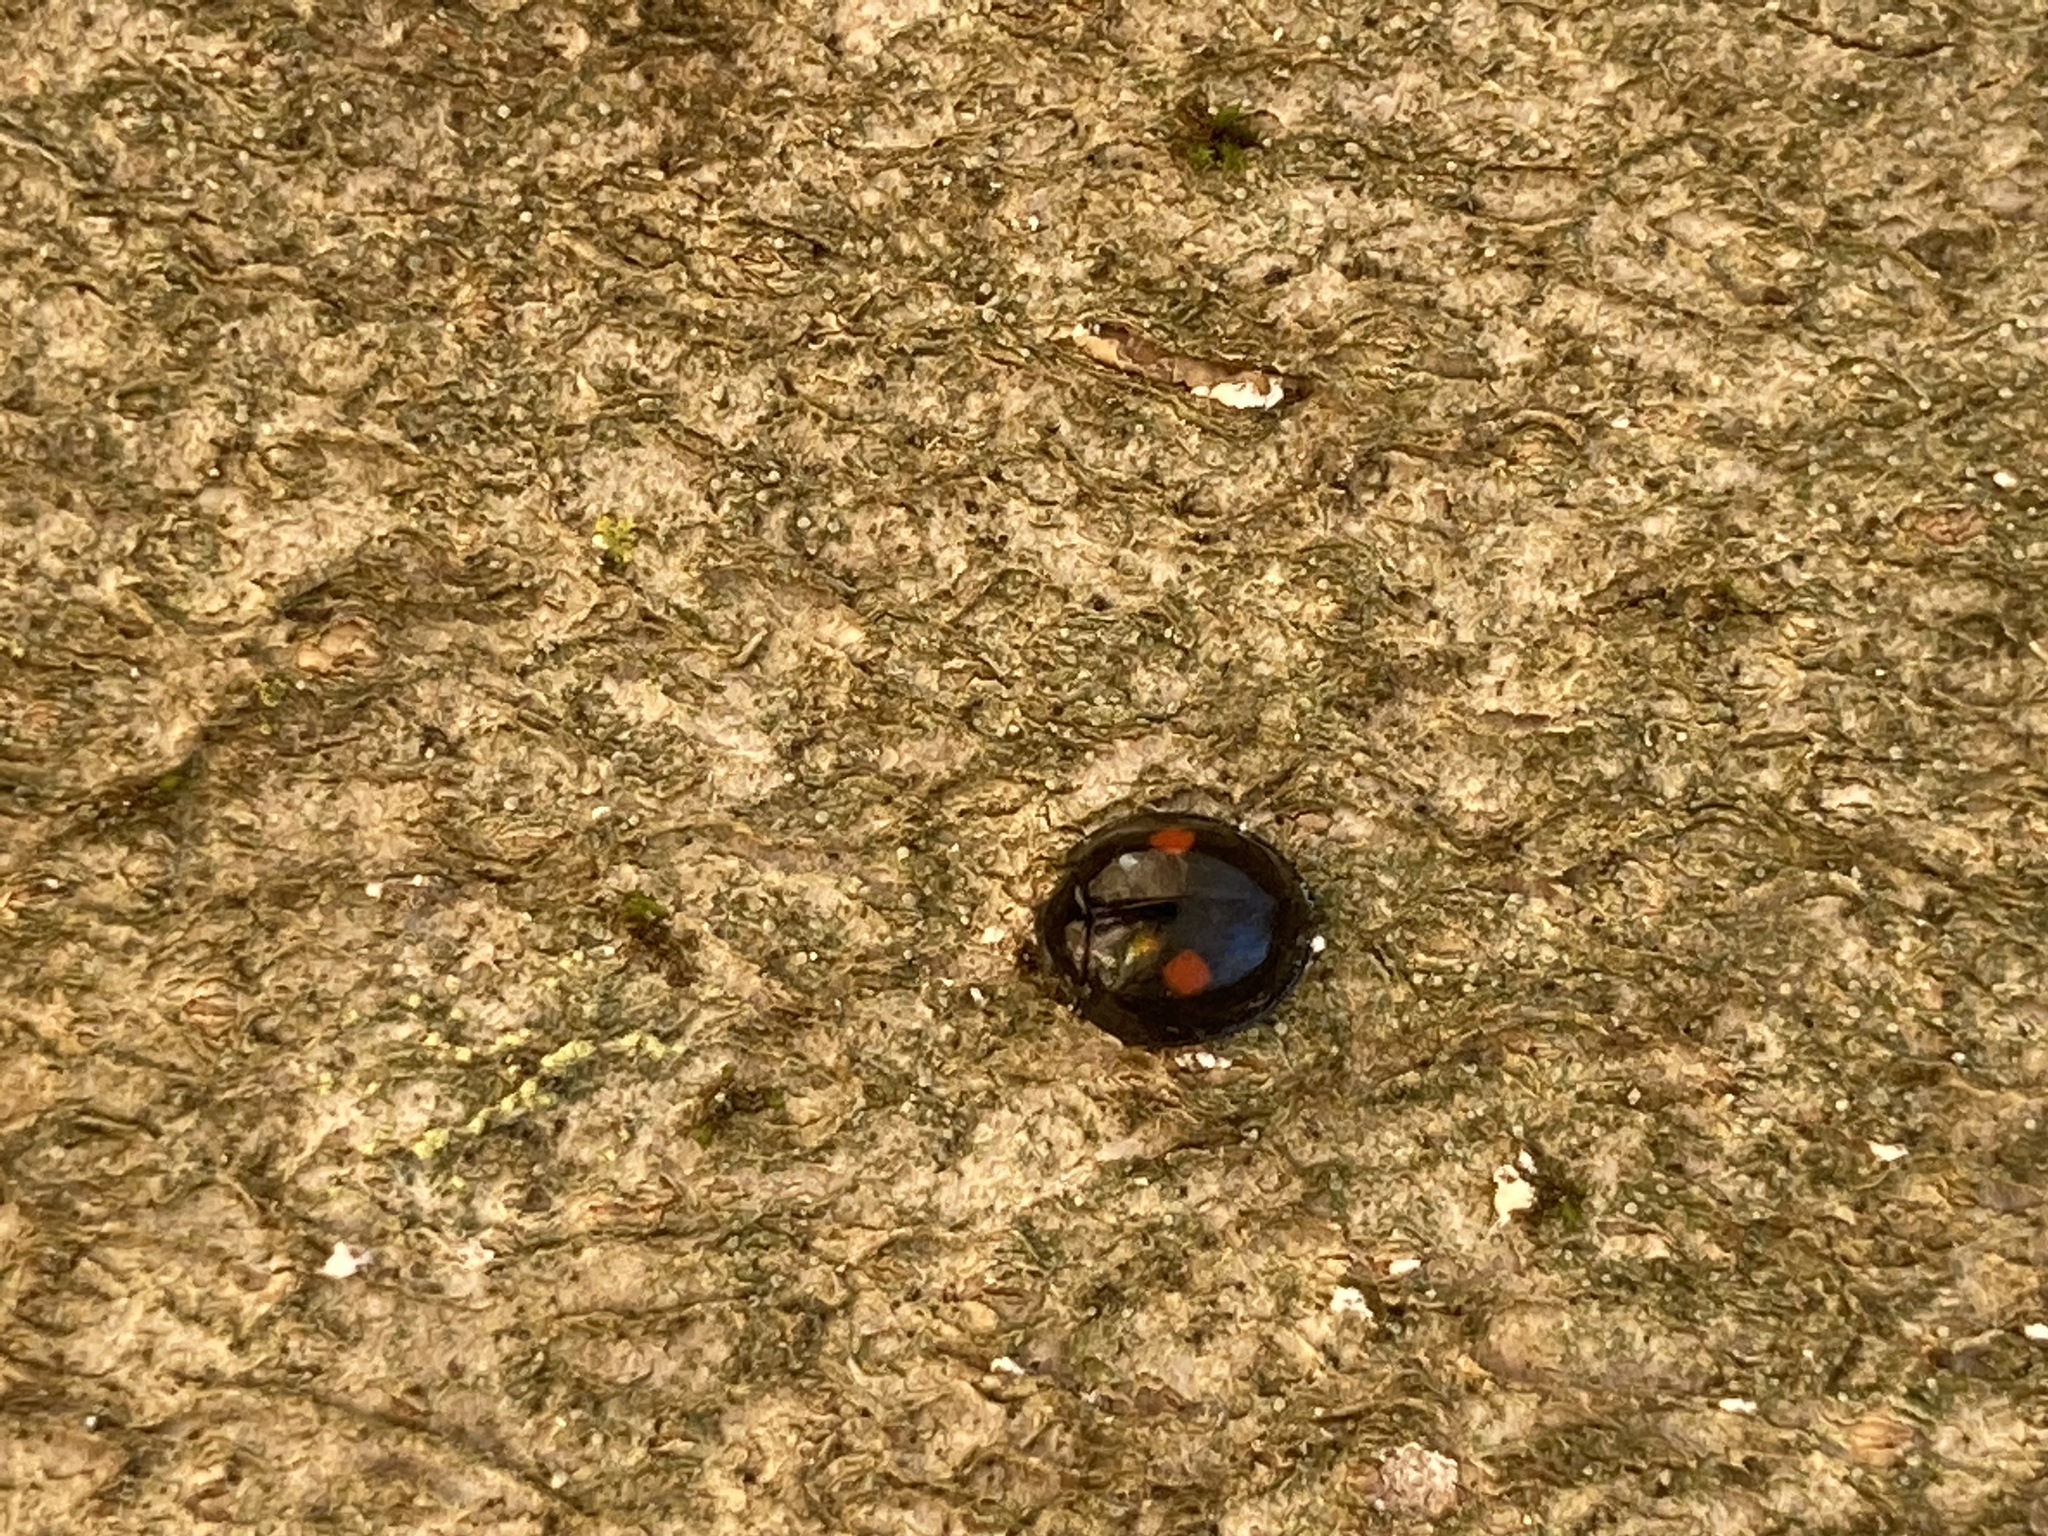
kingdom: Animalia
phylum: Arthropoda
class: Insecta
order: Coleoptera
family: Coccinellidae
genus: Chilocorus
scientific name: Chilocorus stigma
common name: Twicestabbed lady beetle
